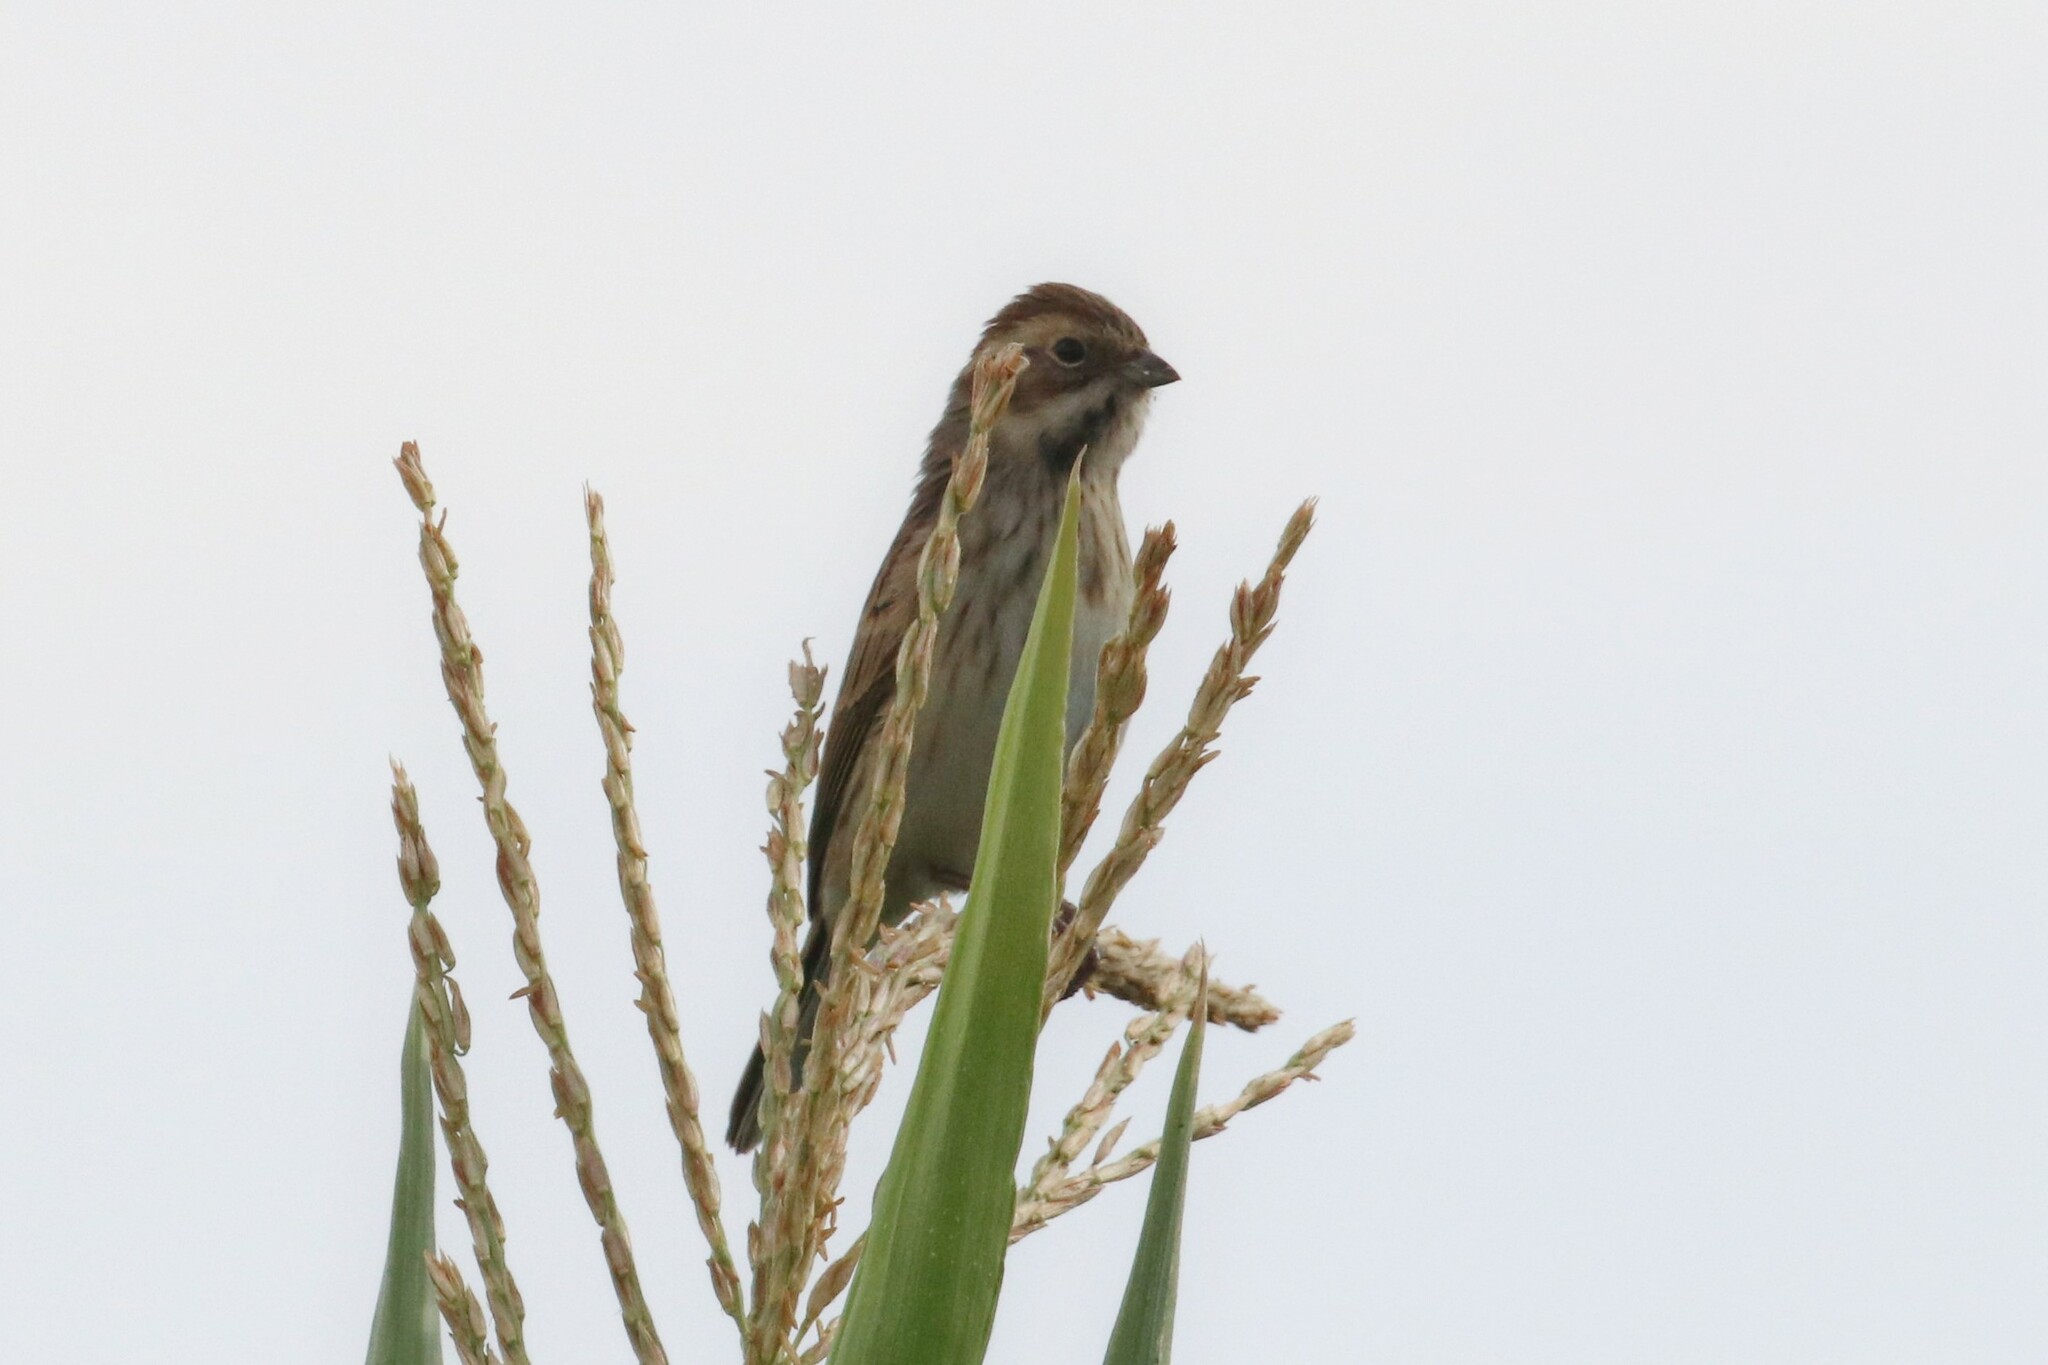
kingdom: Animalia
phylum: Chordata
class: Aves
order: Passeriformes
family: Emberizidae
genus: Emberiza
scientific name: Emberiza schoeniclus
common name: Reed bunting
